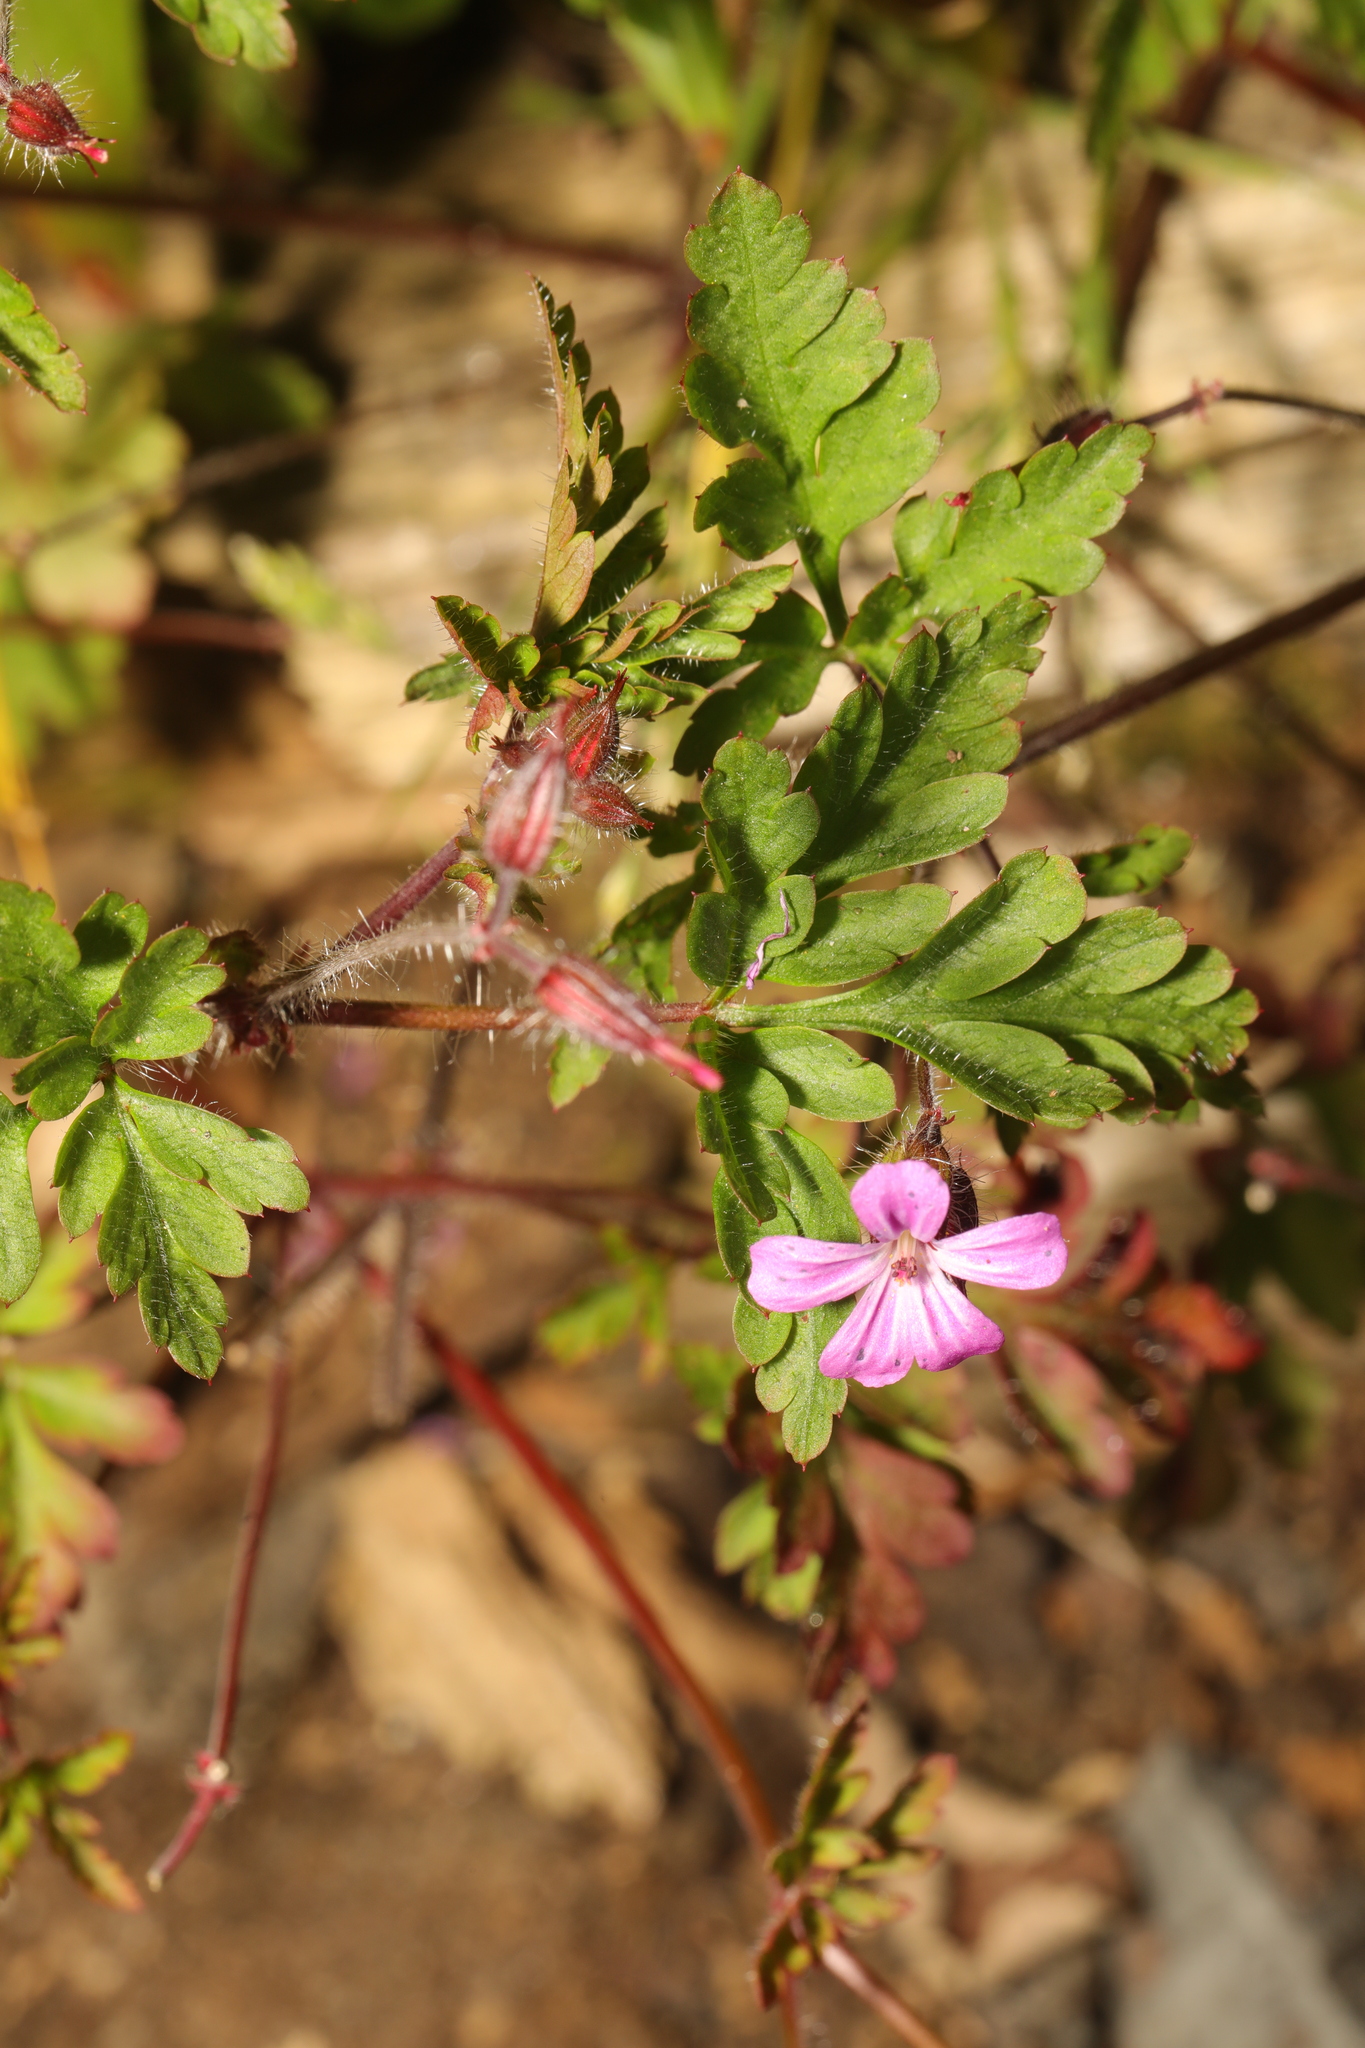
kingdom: Plantae
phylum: Tracheophyta
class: Magnoliopsida
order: Geraniales
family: Geraniaceae
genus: Geranium
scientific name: Geranium robertianum
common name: Herb-robert
